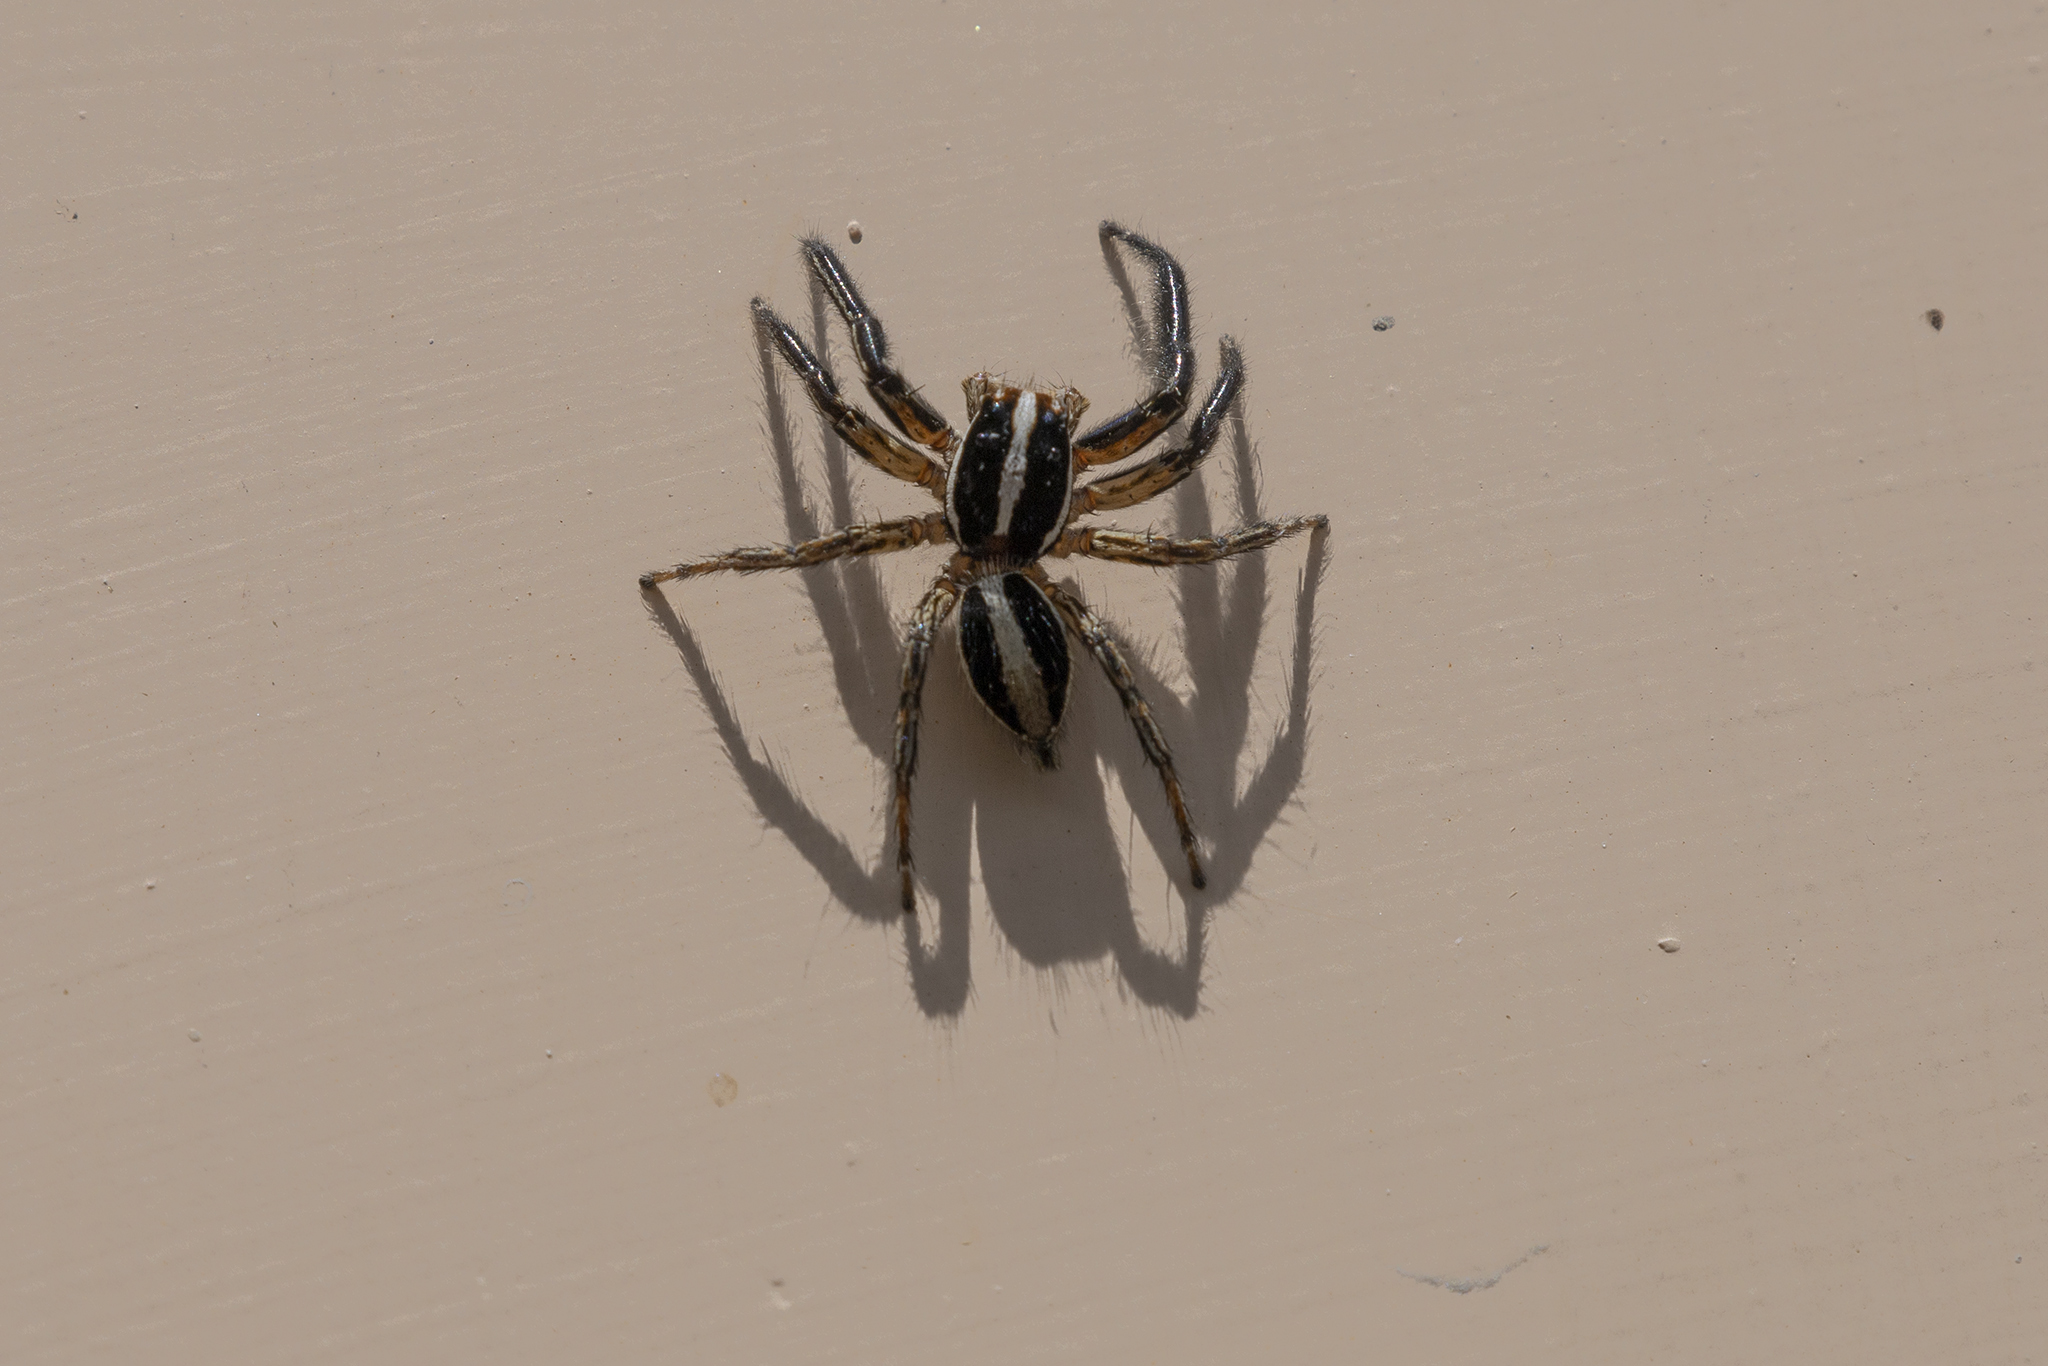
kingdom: Animalia
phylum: Arthropoda
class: Arachnida
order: Araneae
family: Salticidae
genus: Plexippus
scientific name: Plexippus paykulli
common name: Pantropical jumper
